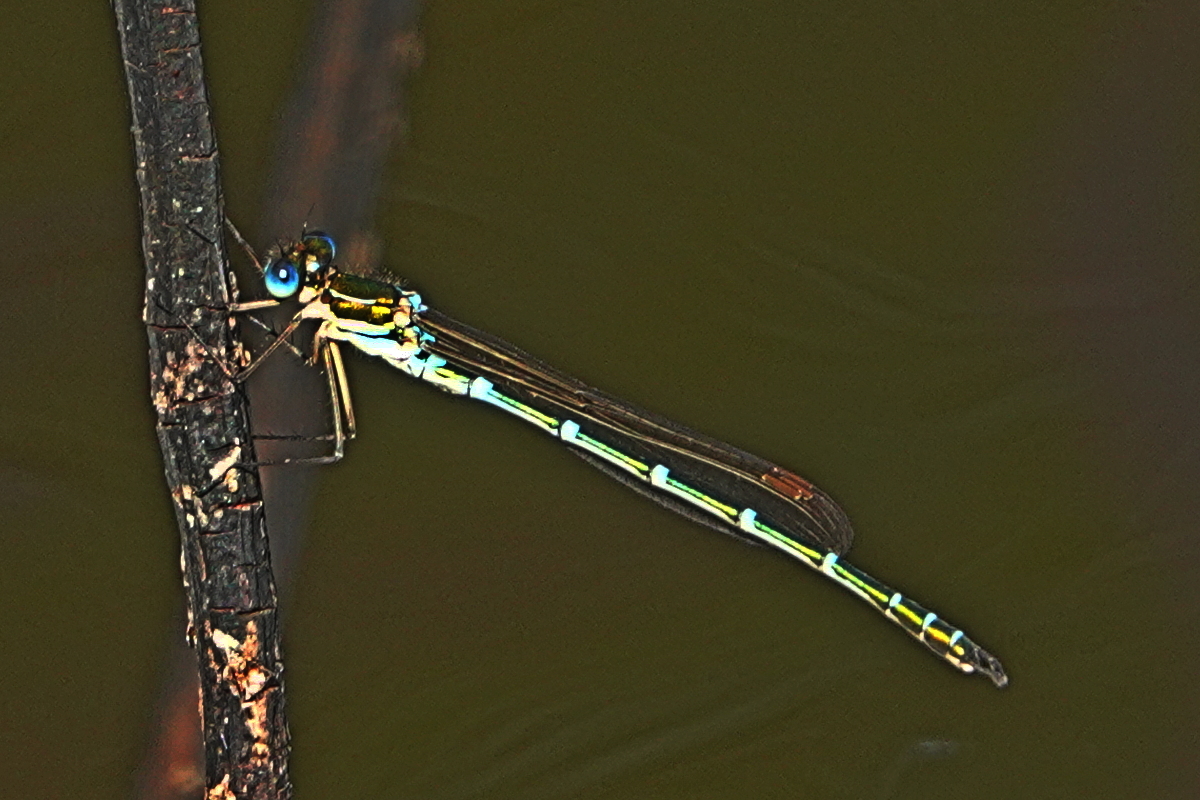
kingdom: Animalia
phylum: Arthropoda
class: Insecta
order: Odonata
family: Lestidae
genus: Austrolestes
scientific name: Austrolestes cingulatus
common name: Metallic ringtail
